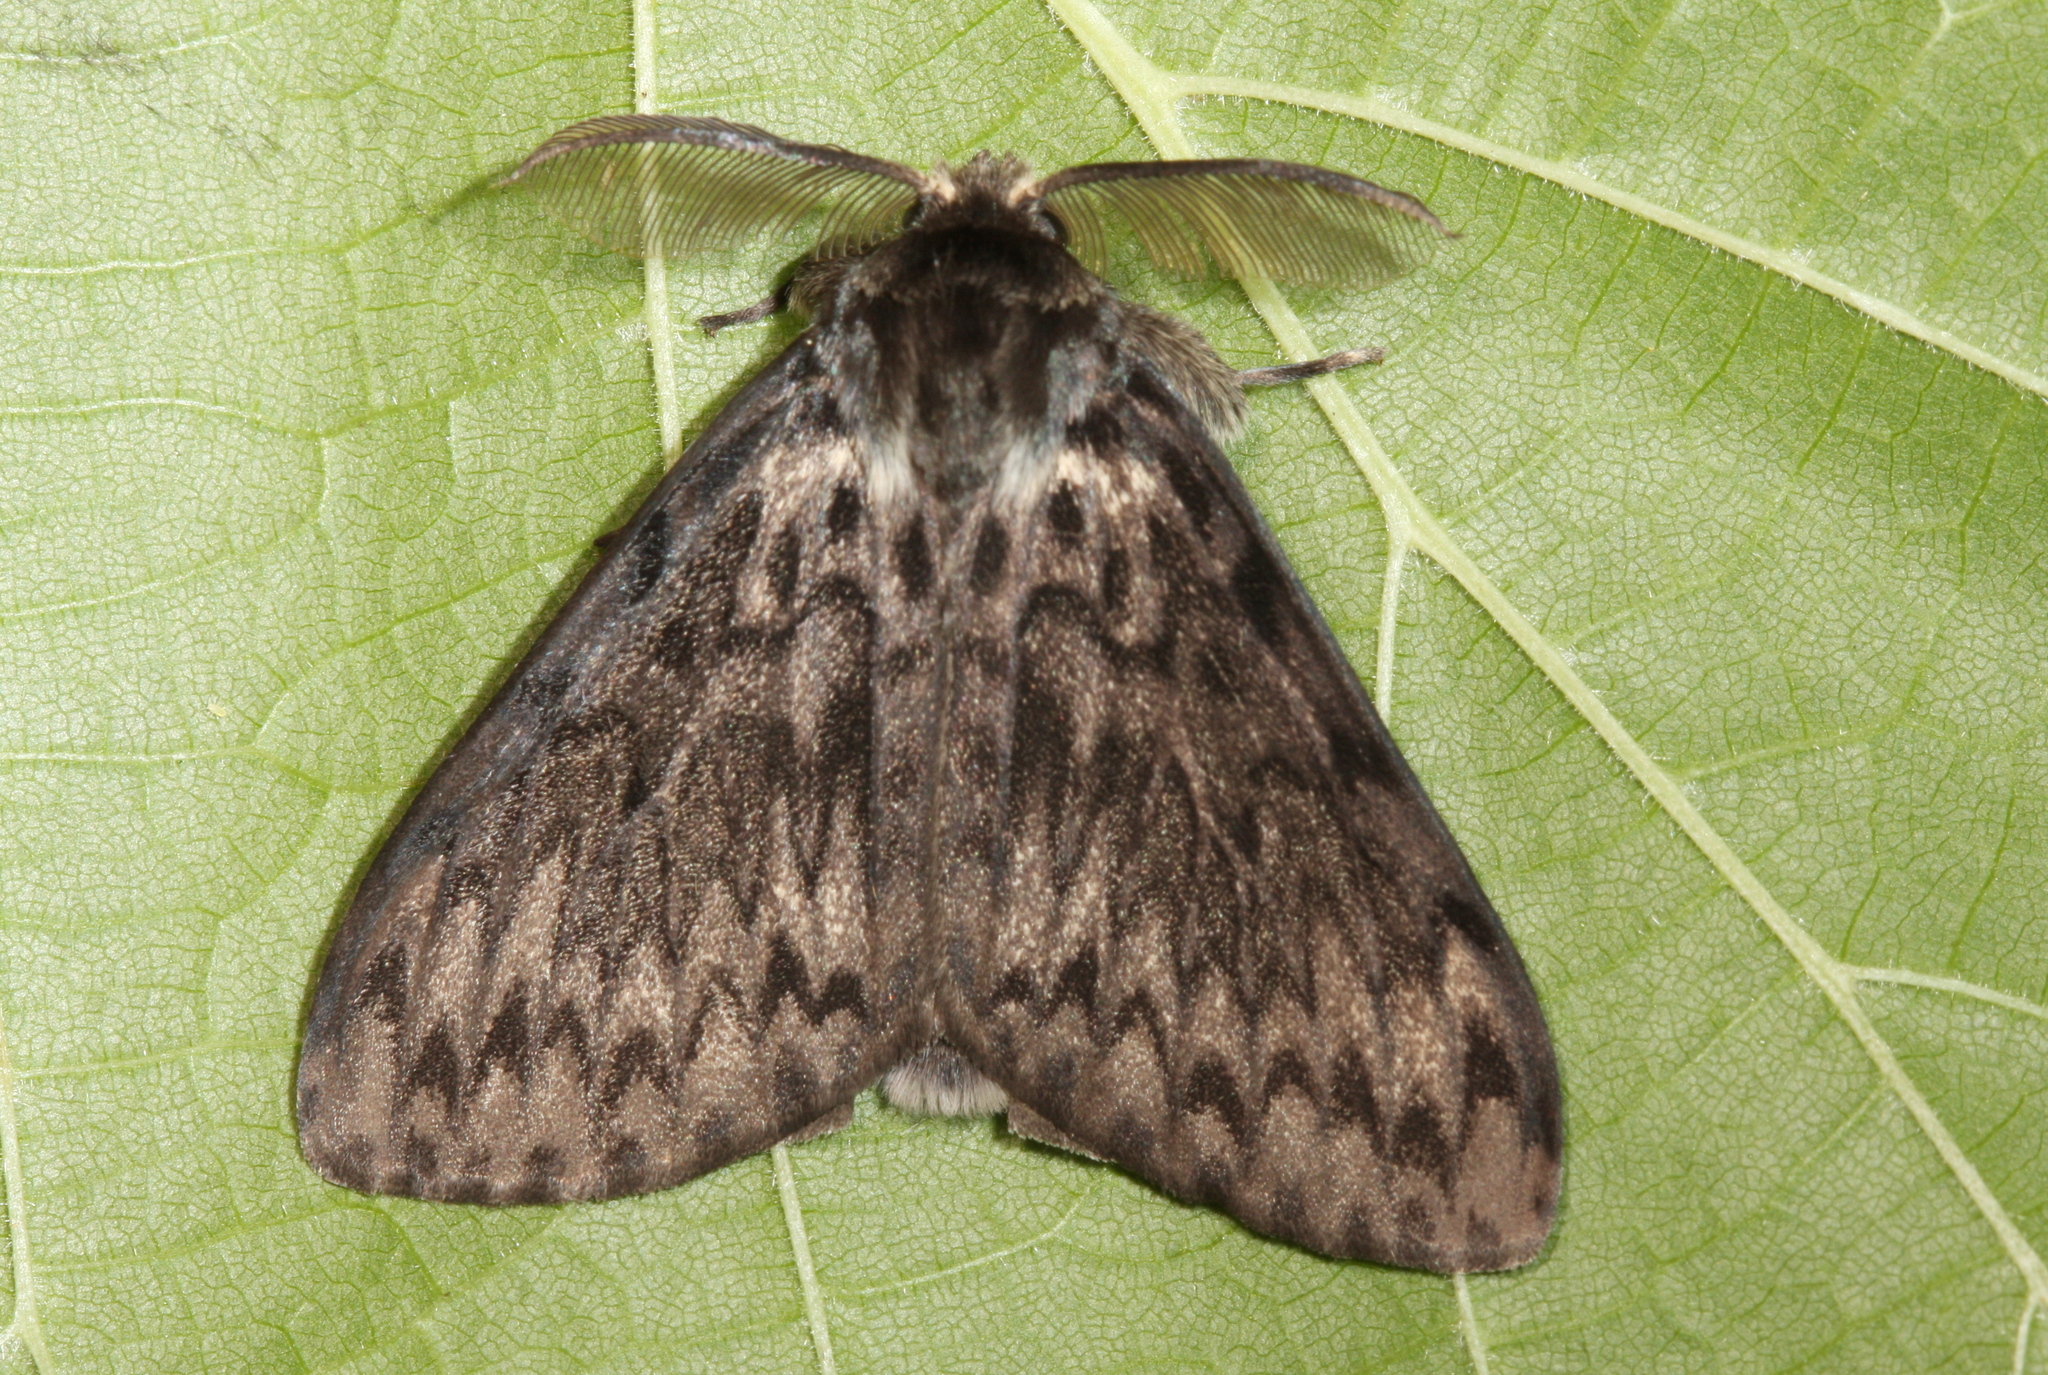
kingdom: Animalia
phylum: Arthropoda
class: Insecta
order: Lepidoptera
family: Erebidae
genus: Lymantria
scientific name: Lymantria monacha
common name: Black arches
